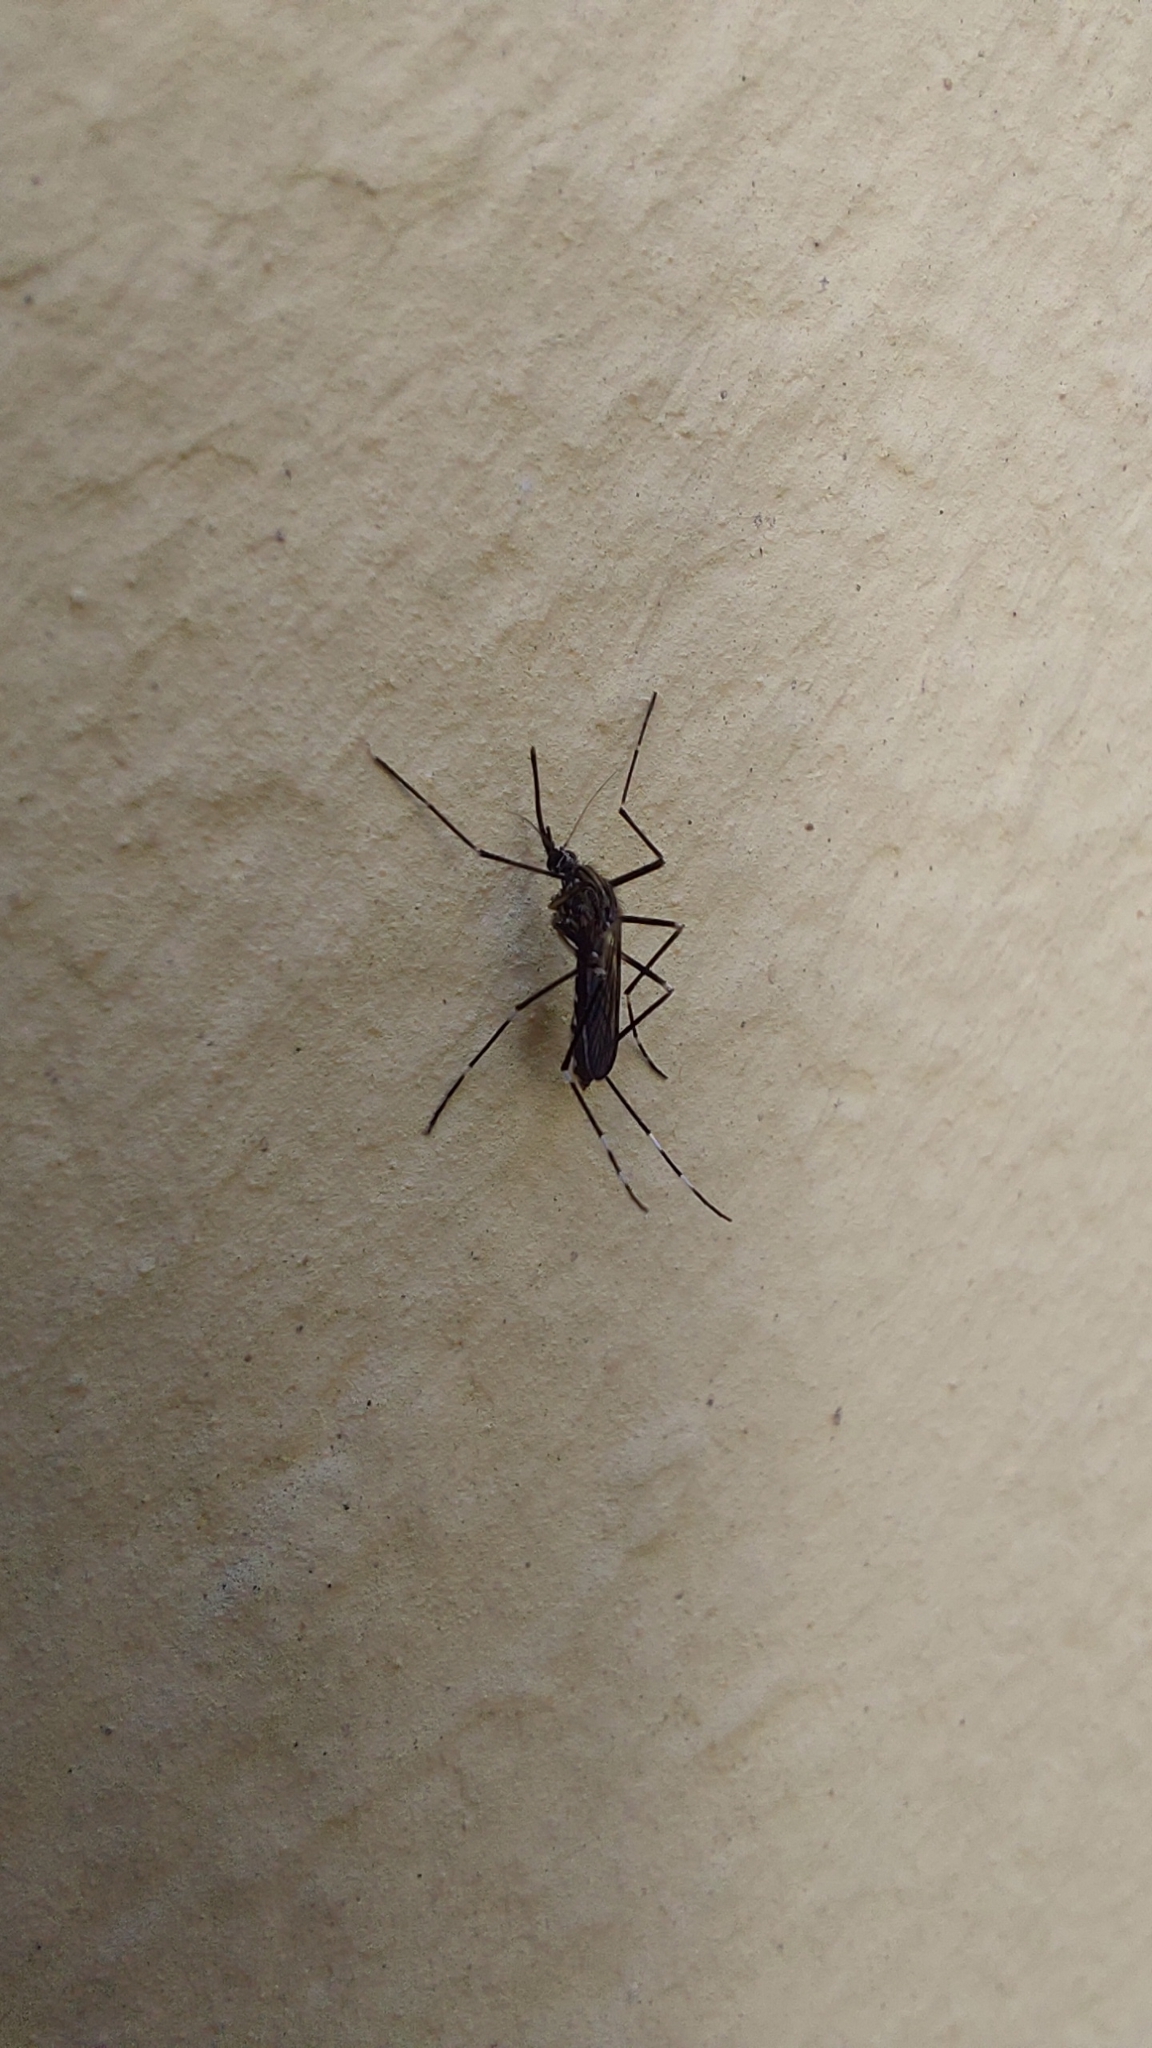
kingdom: Animalia
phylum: Arthropoda
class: Insecta
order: Diptera
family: Culicidae
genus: Aedes
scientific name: Aedes japonicus
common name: Asian bush mosquito
